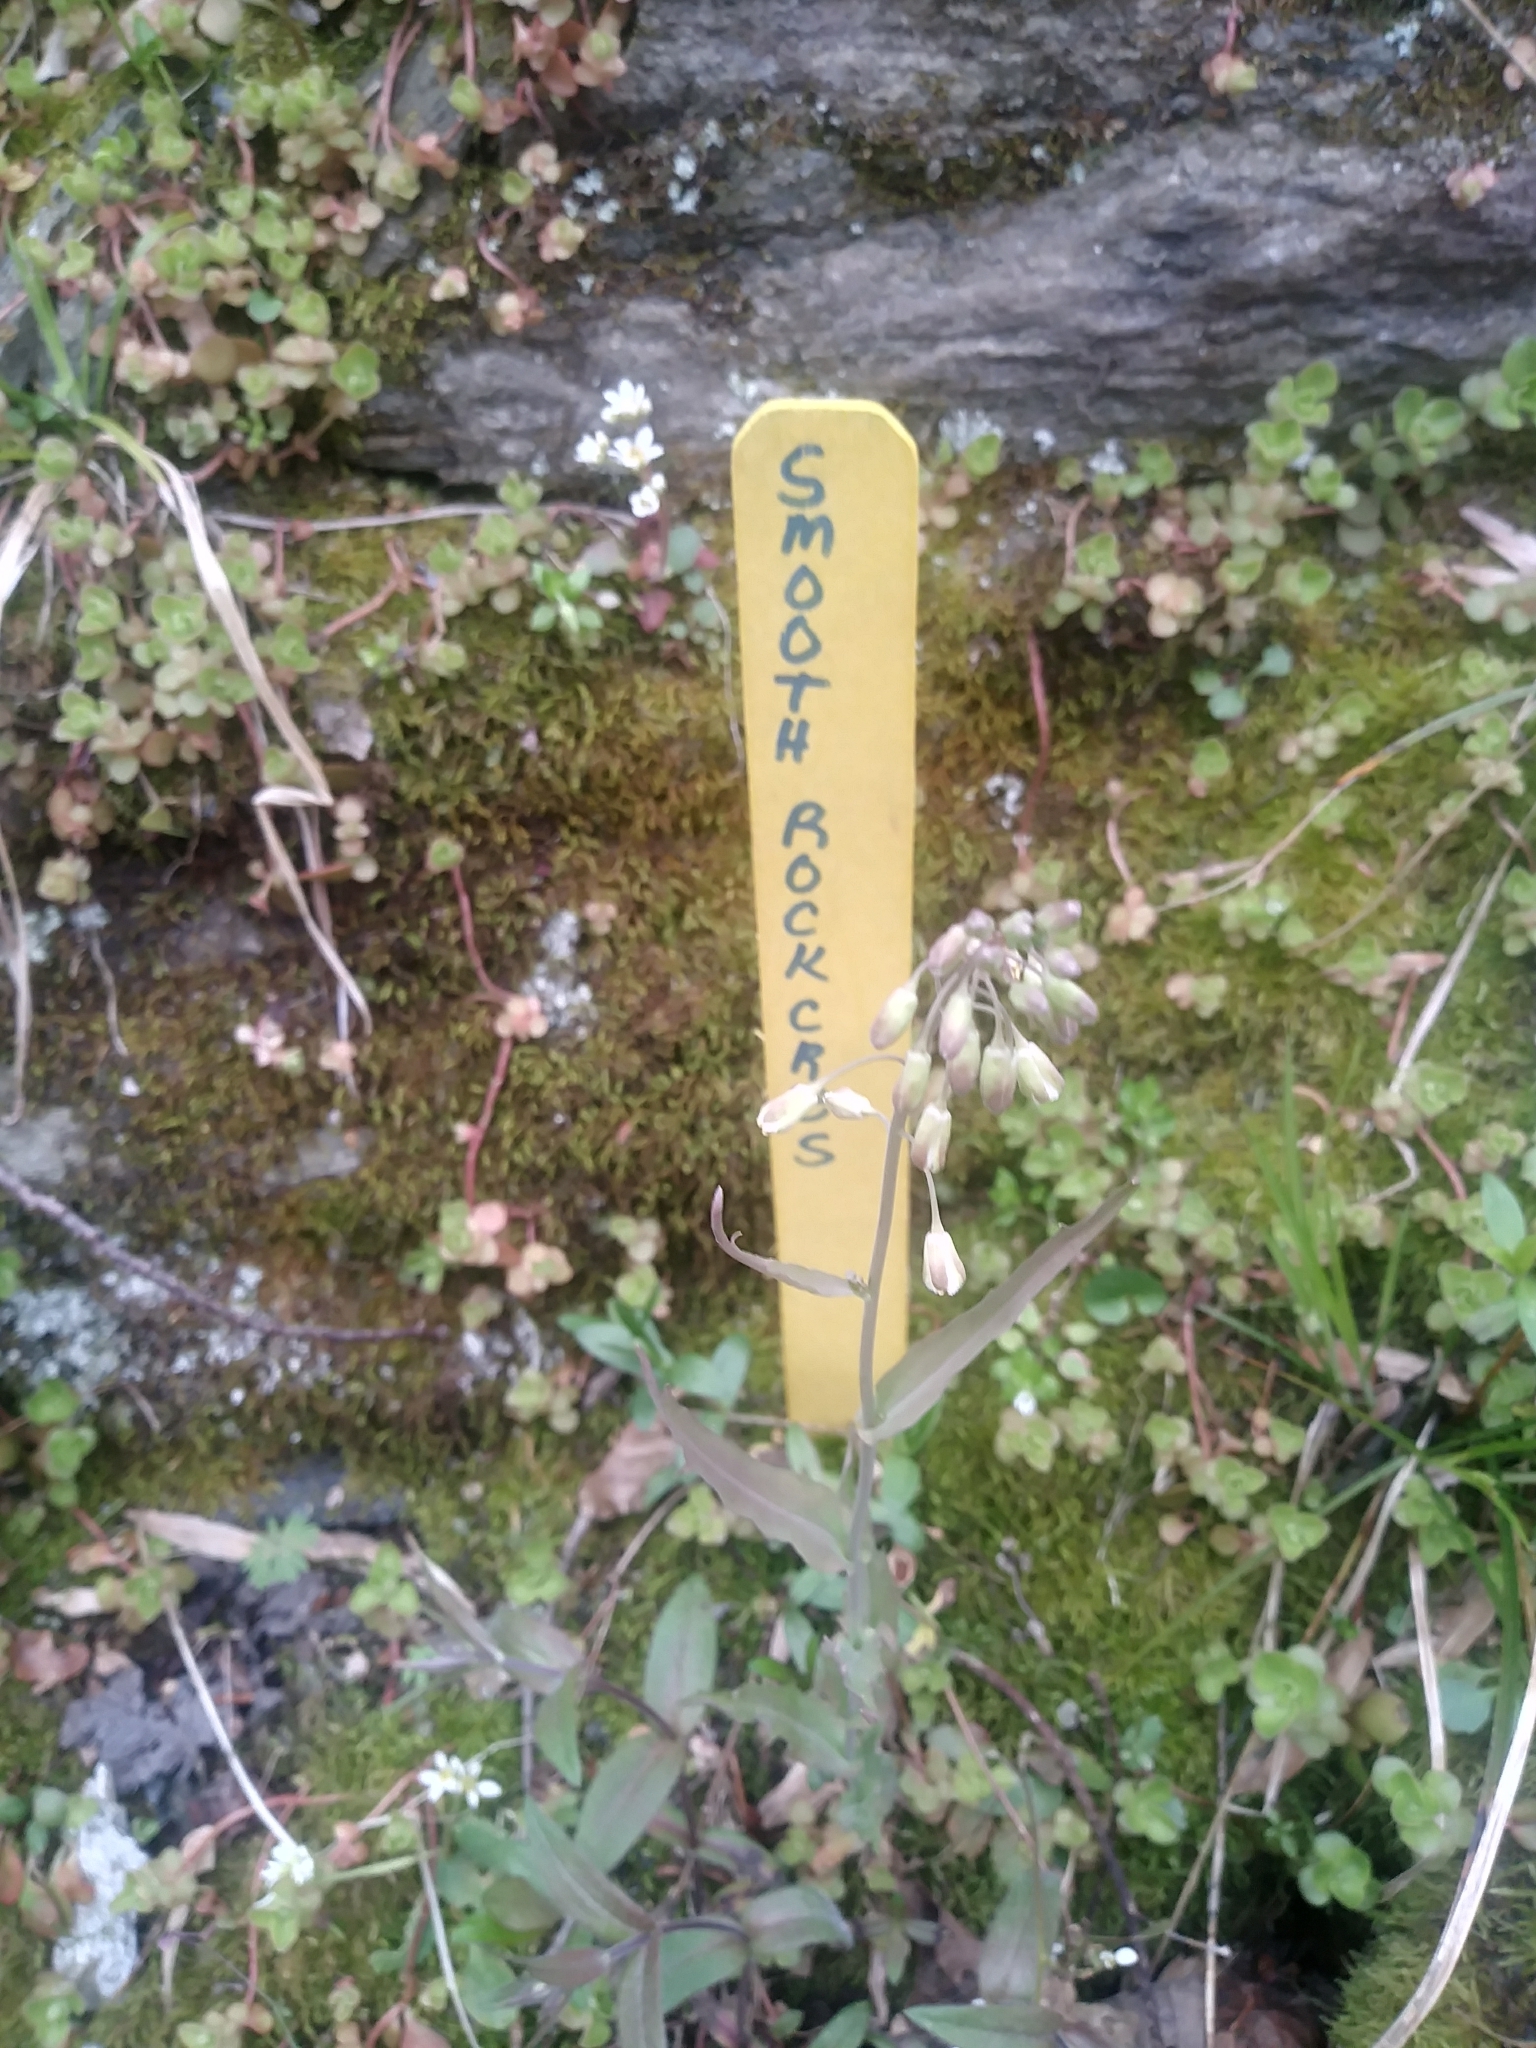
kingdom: Plantae
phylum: Tracheophyta
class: Magnoliopsida
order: Brassicales
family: Brassicaceae
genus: Borodinia
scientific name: Borodinia laevigata
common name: Smooth rockcress
